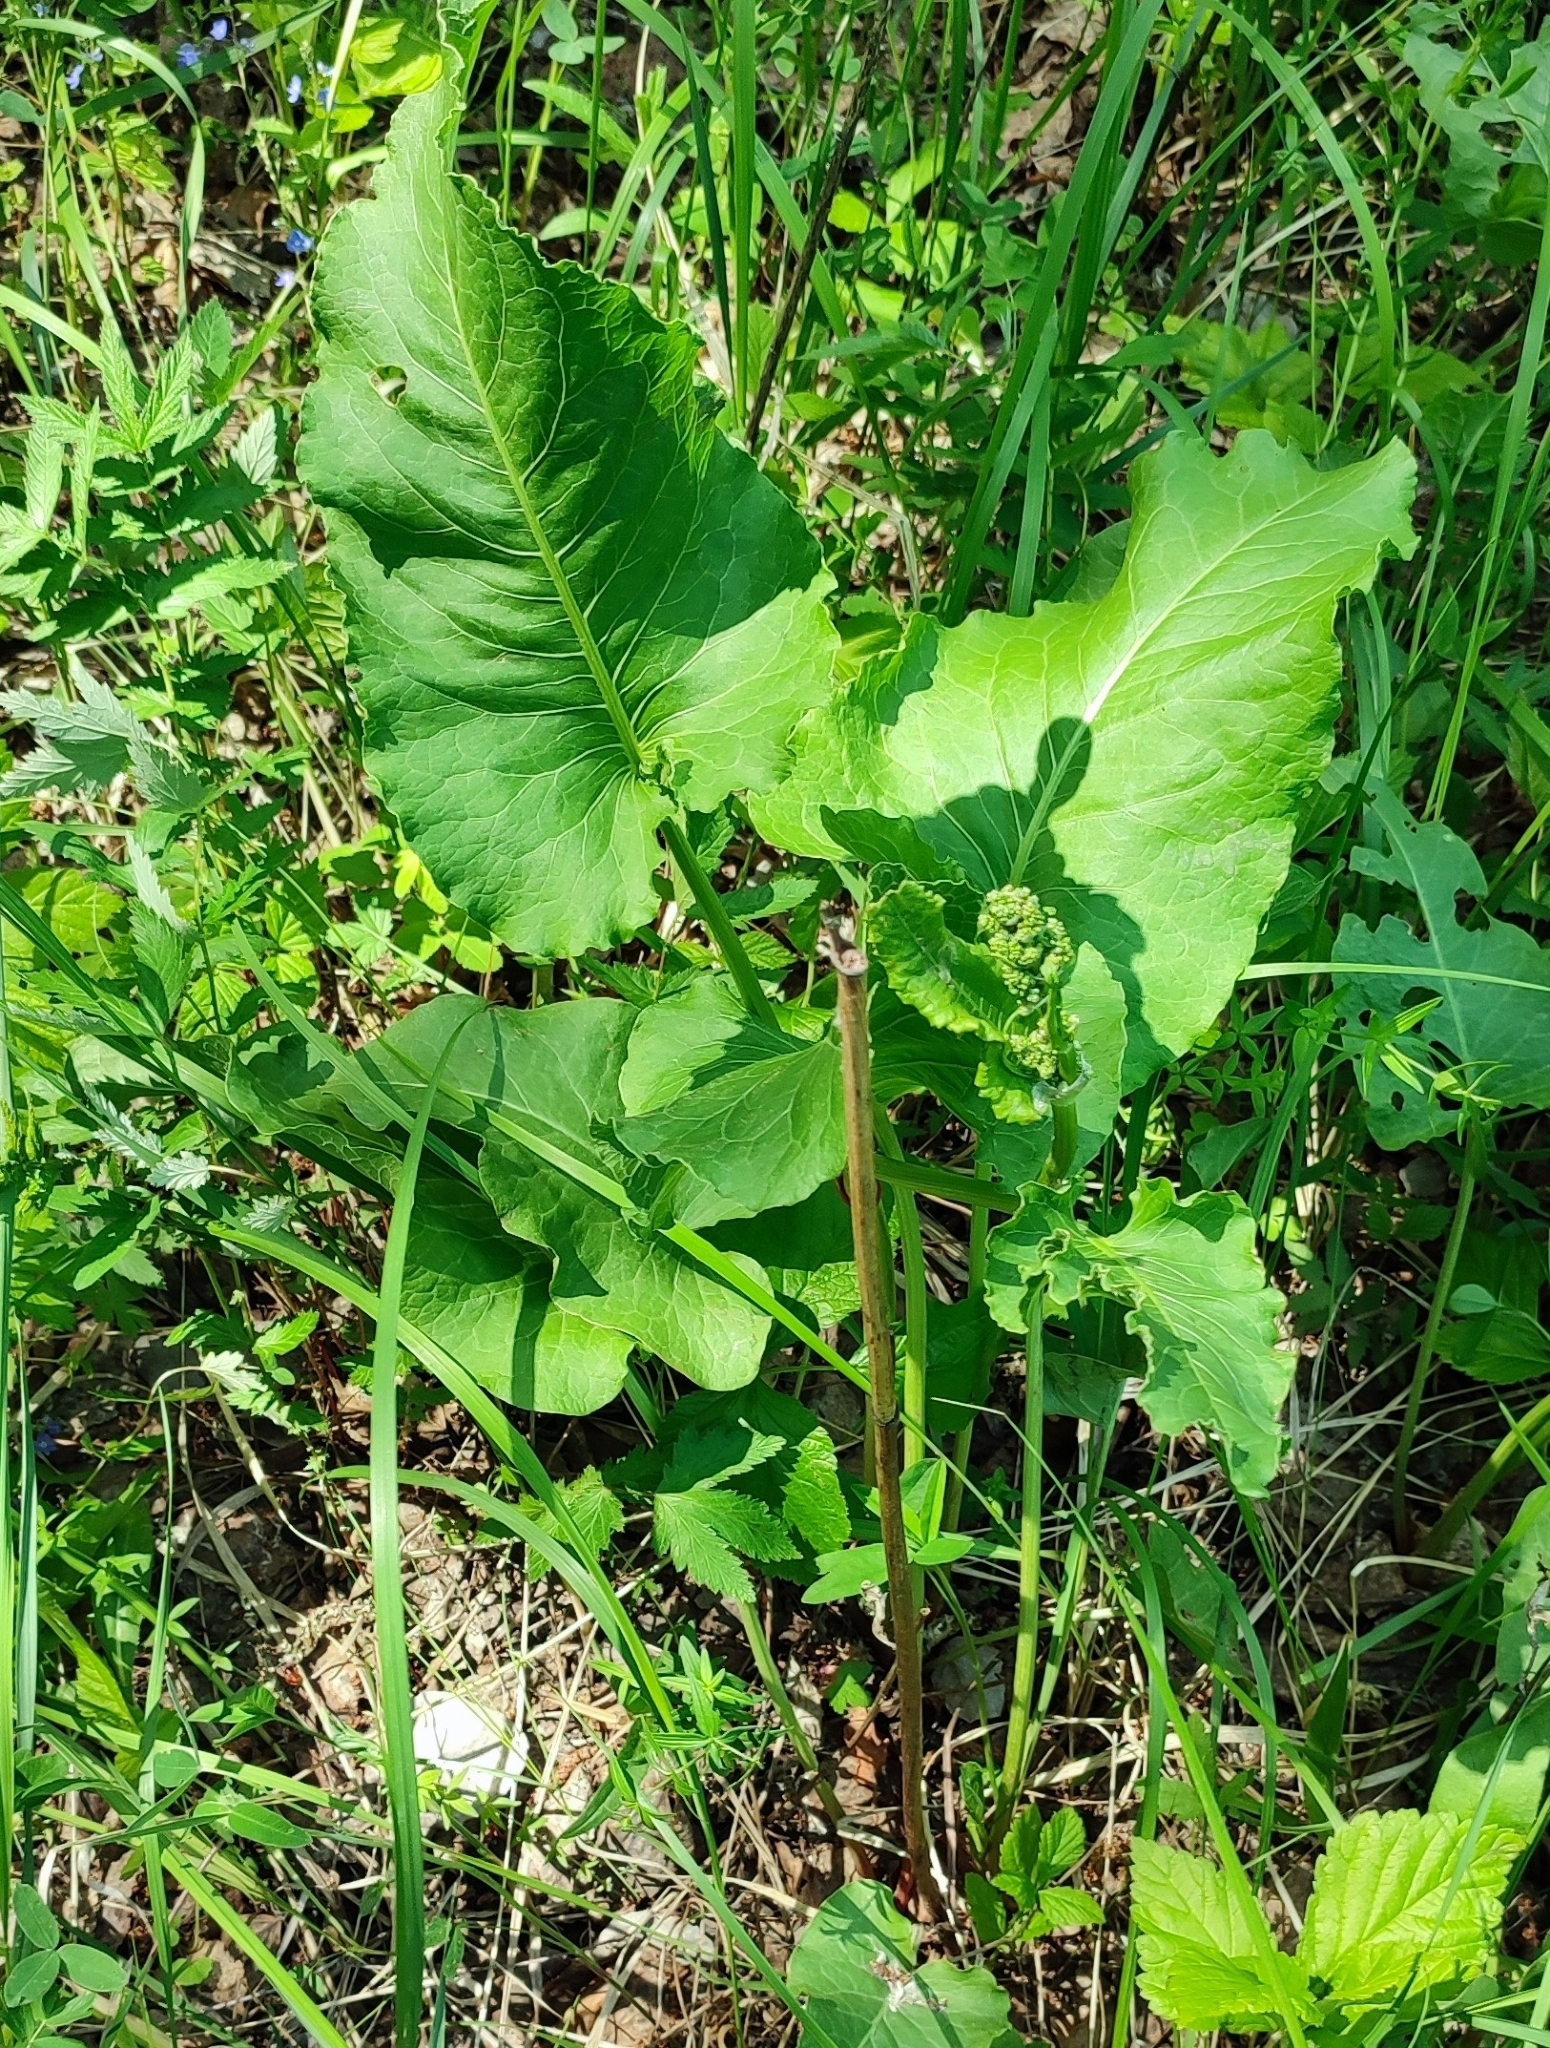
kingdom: Plantae
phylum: Tracheophyta
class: Magnoliopsida
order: Caryophyllales
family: Polygonaceae
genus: Rumex
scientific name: Rumex confertus
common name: Russian dock
